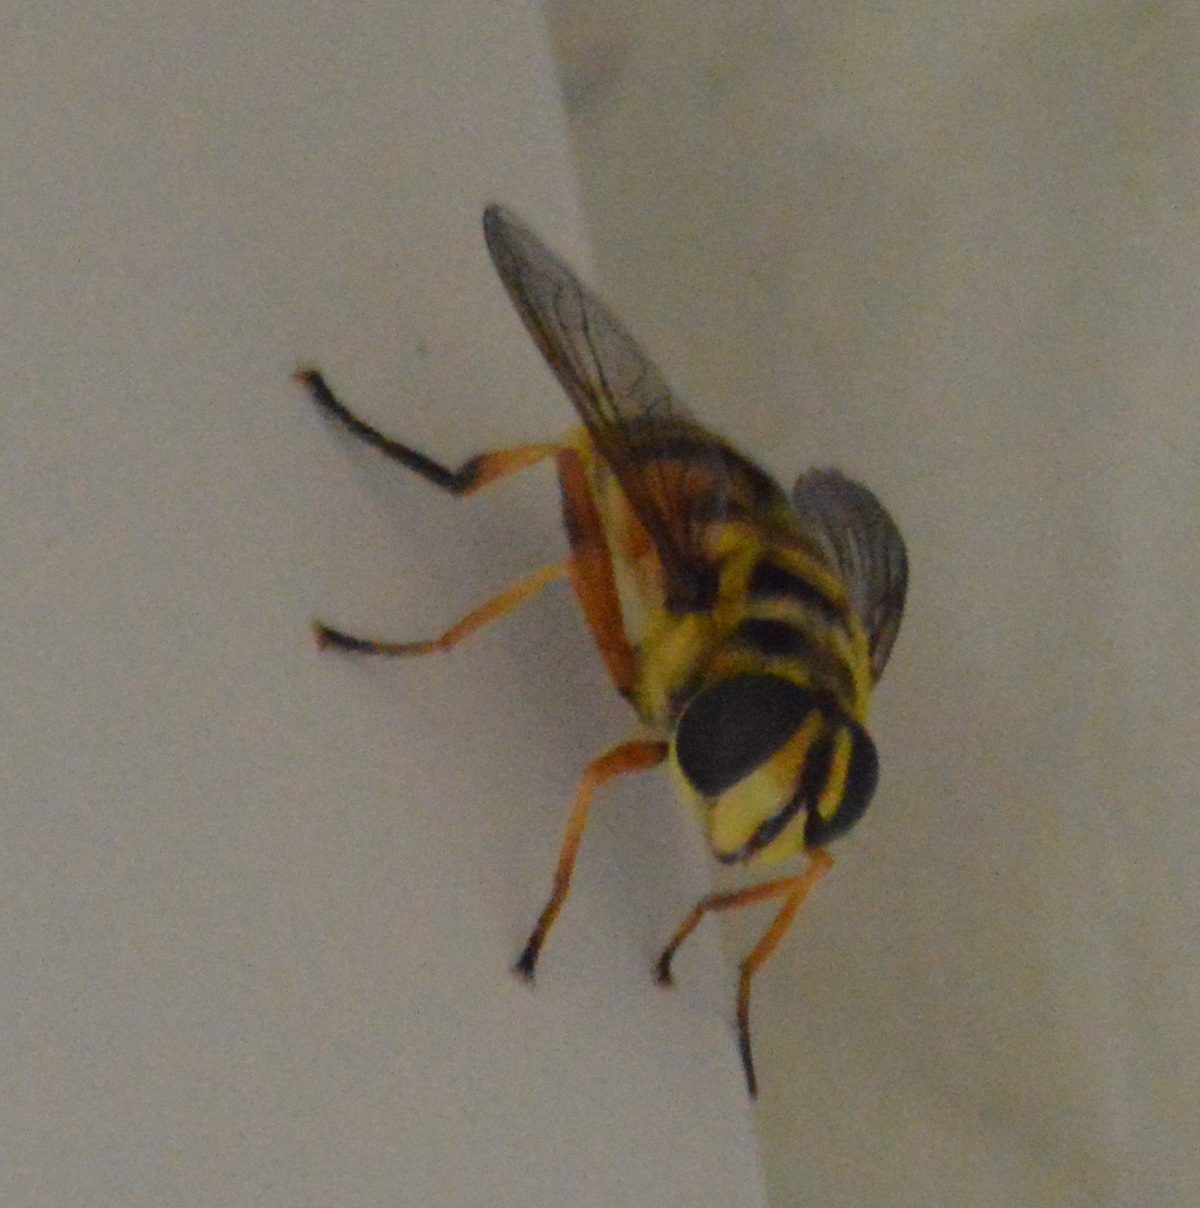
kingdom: Animalia
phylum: Arthropoda
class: Insecta
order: Diptera
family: Syrphidae
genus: Myathropa
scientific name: Myathropa florea
